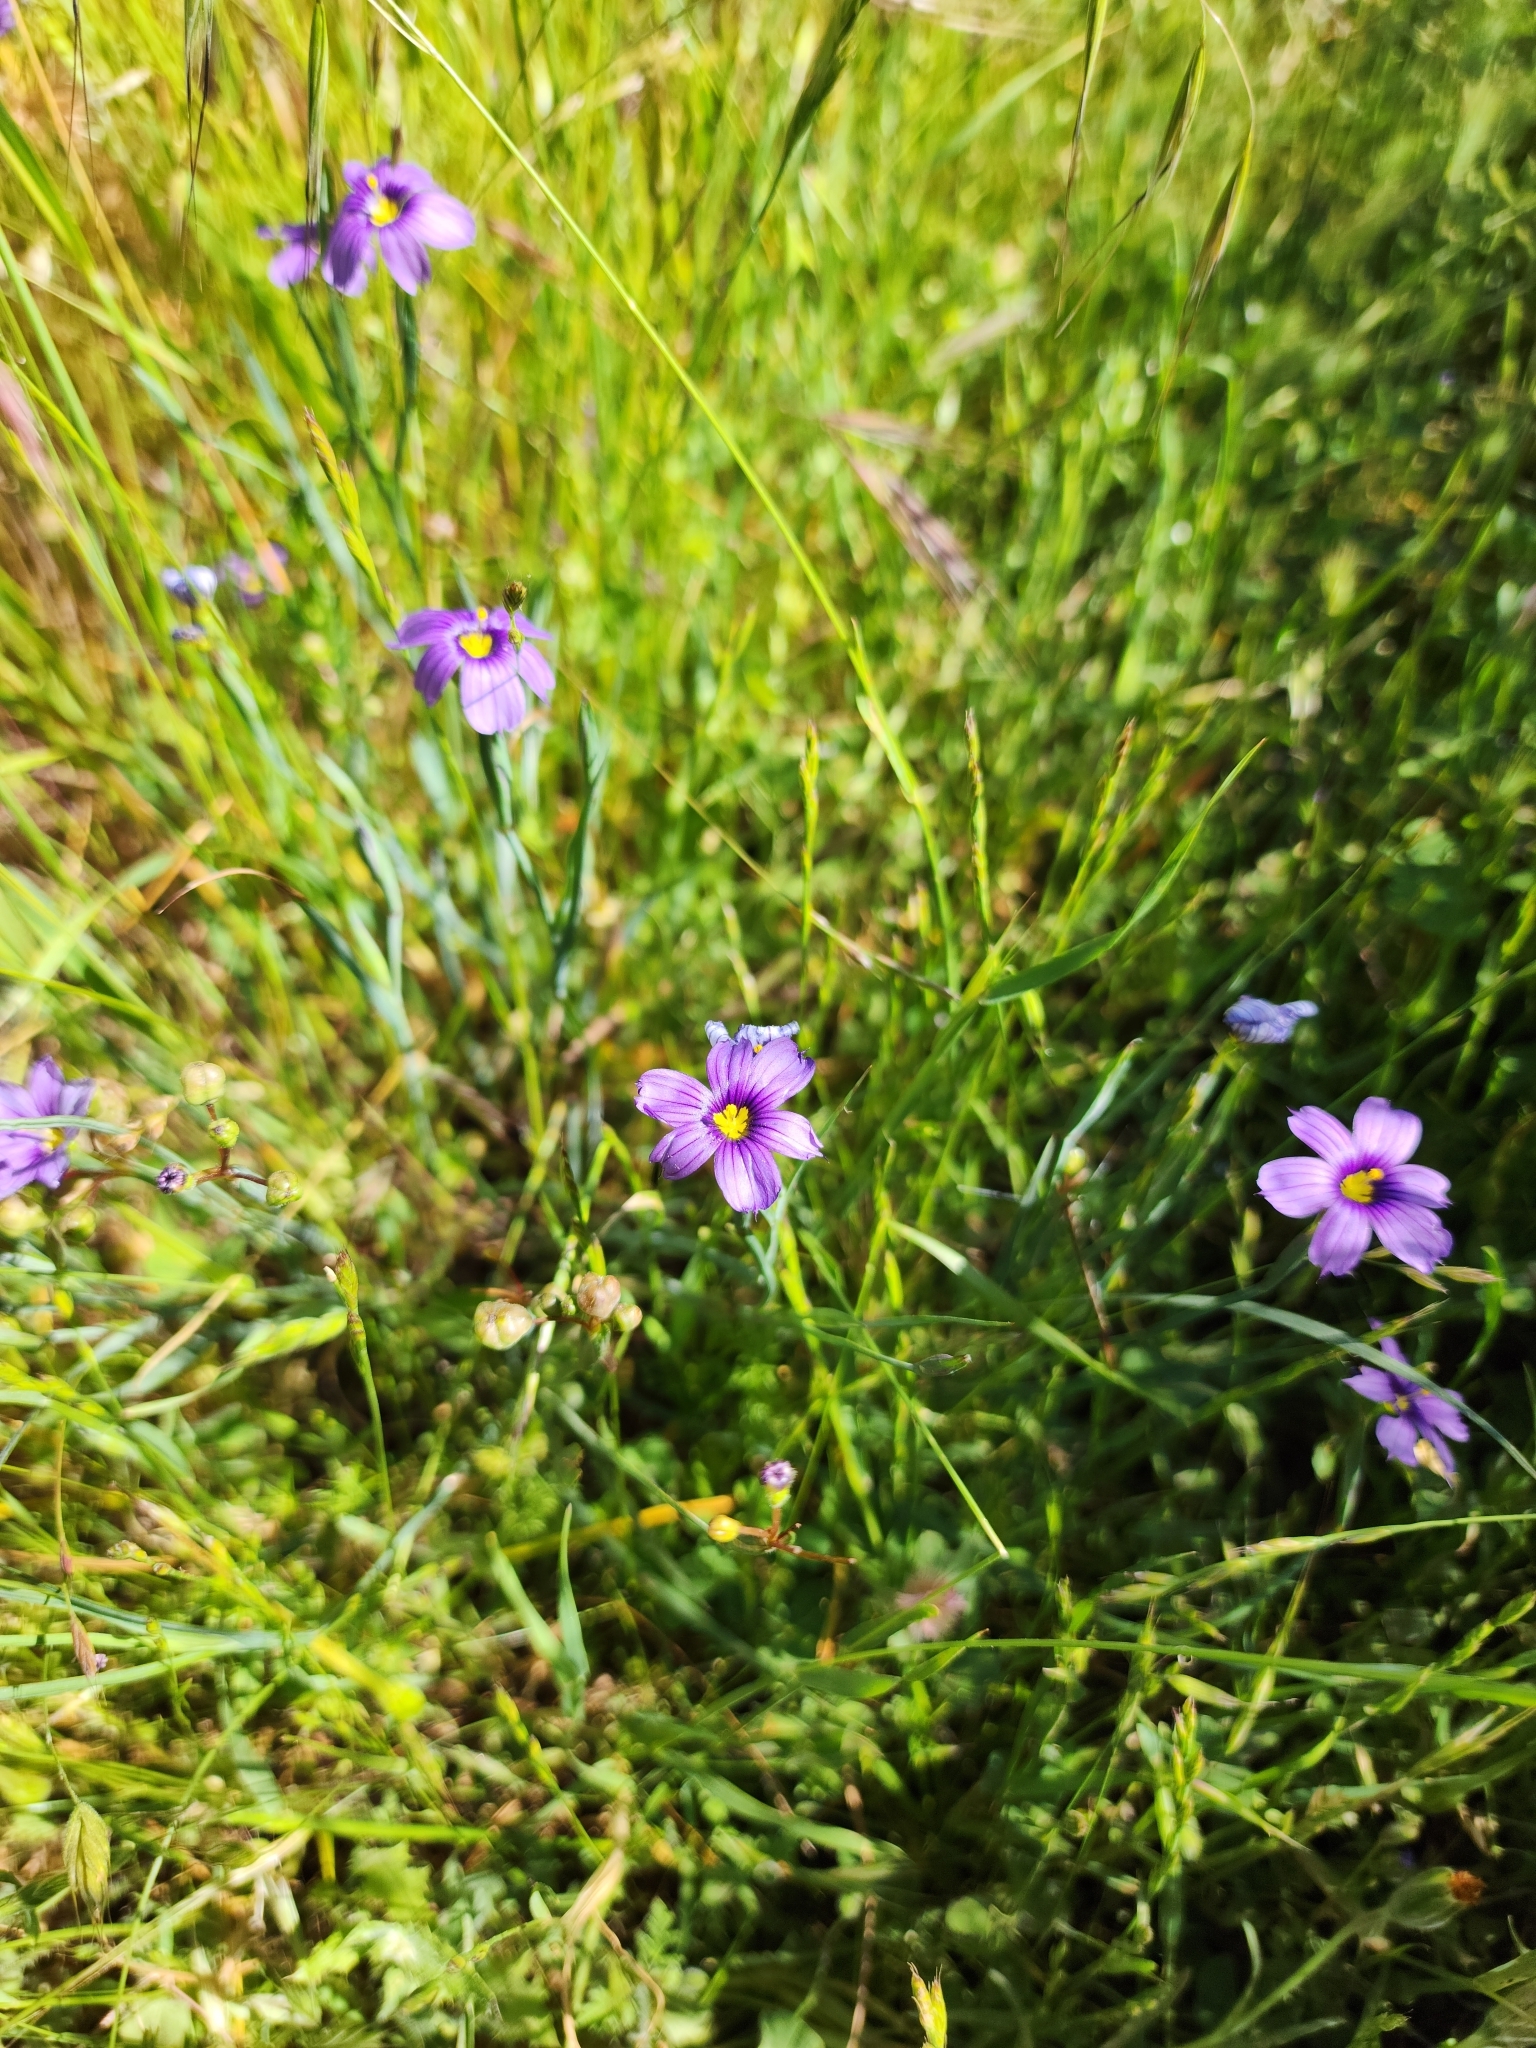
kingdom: Plantae
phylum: Tracheophyta
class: Liliopsida
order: Asparagales
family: Iridaceae
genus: Sisyrinchium
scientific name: Sisyrinchium bellum
